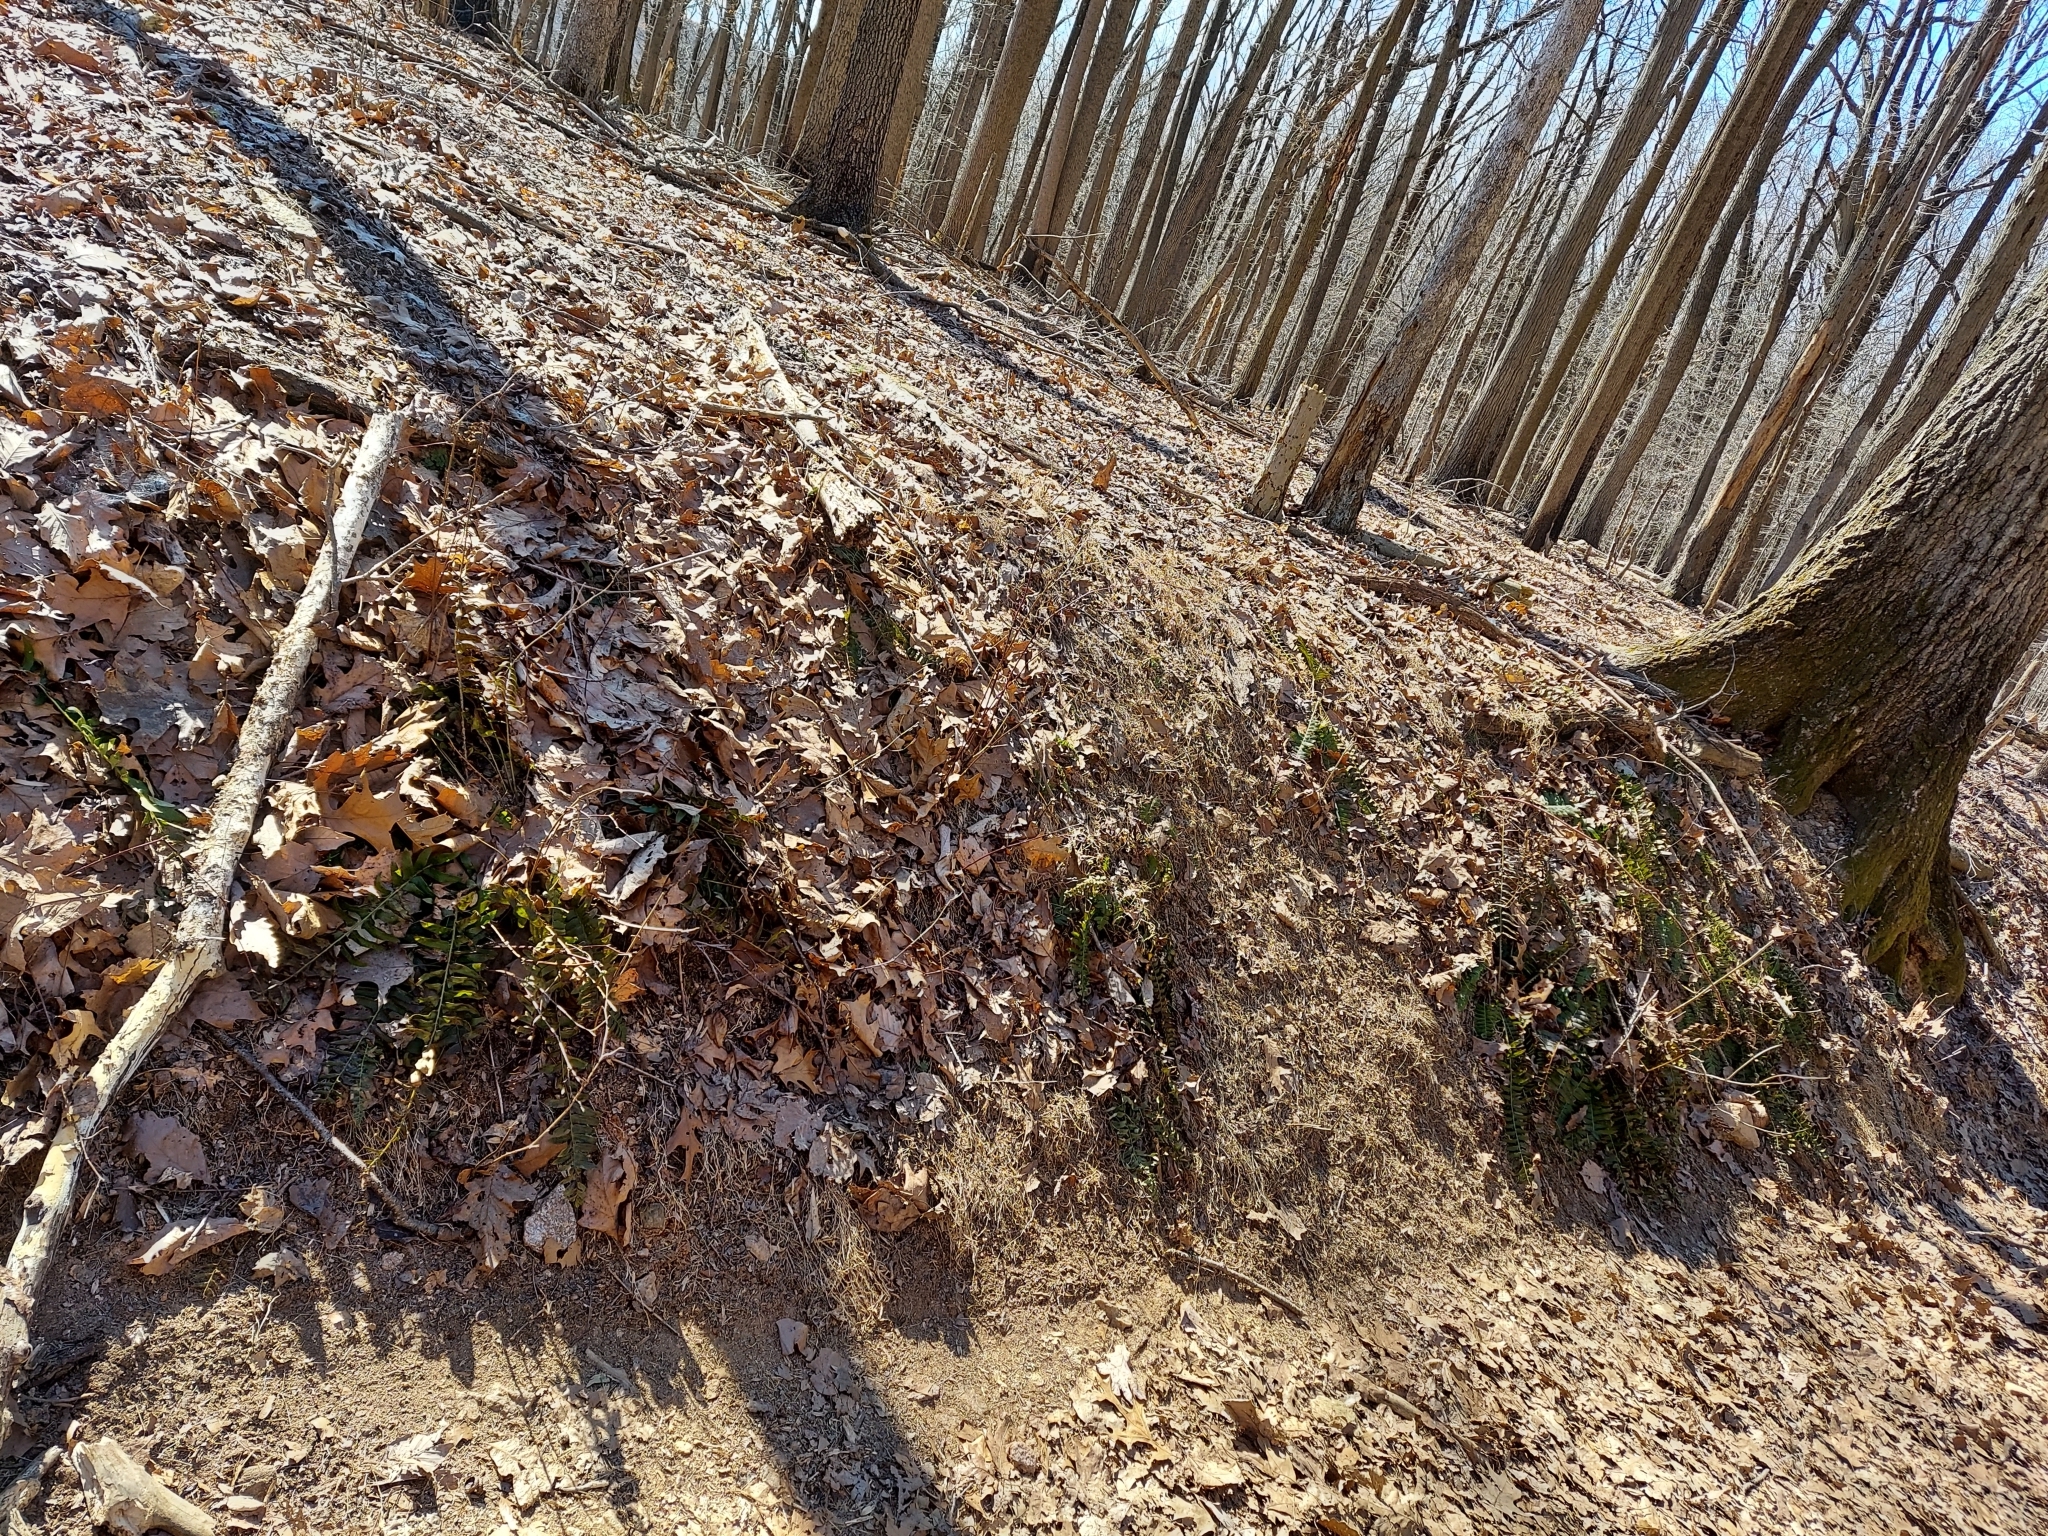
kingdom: Plantae
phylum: Tracheophyta
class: Polypodiopsida
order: Polypodiales
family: Dryopteridaceae
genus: Polystichum
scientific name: Polystichum acrostichoides
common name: Christmas fern
